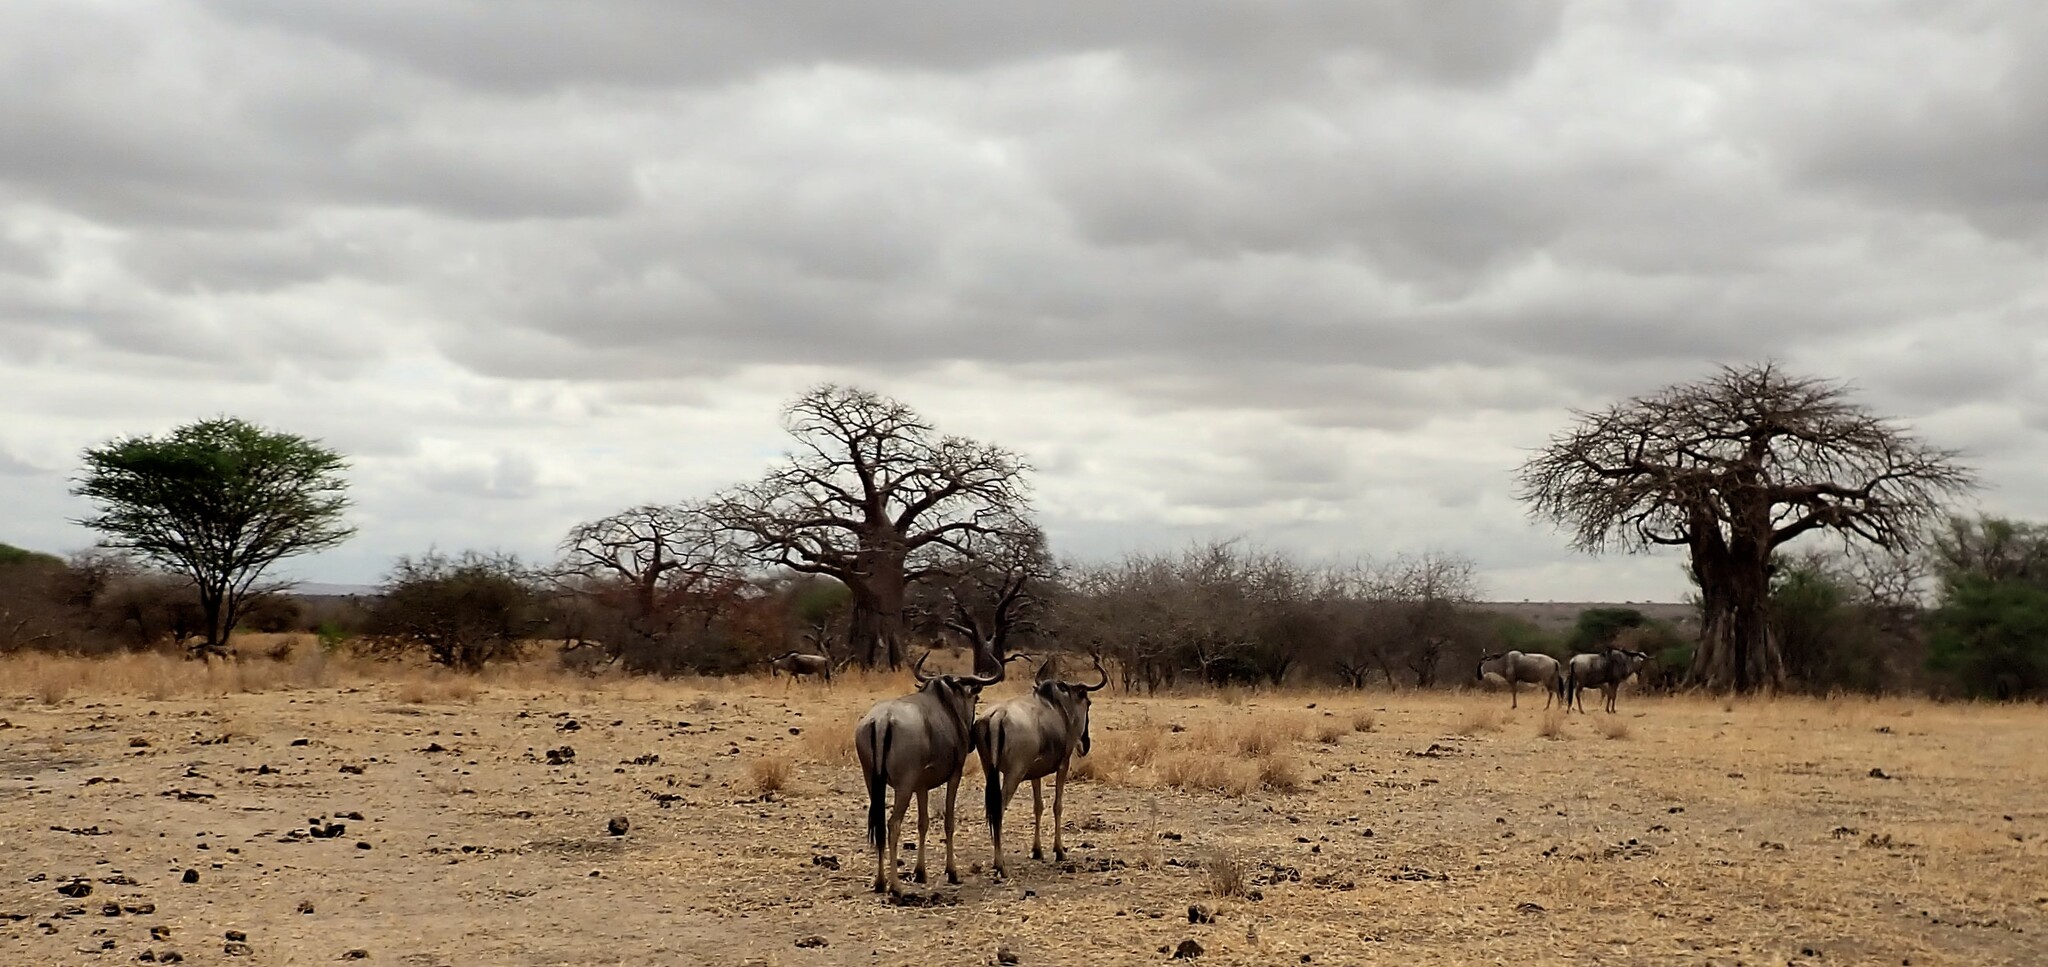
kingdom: Animalia
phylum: Chordata
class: Mammalia
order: Artiodactyla
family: Bovidae
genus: Connochaetes
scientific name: Connochaetes taurinus
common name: Blue wildebeest
